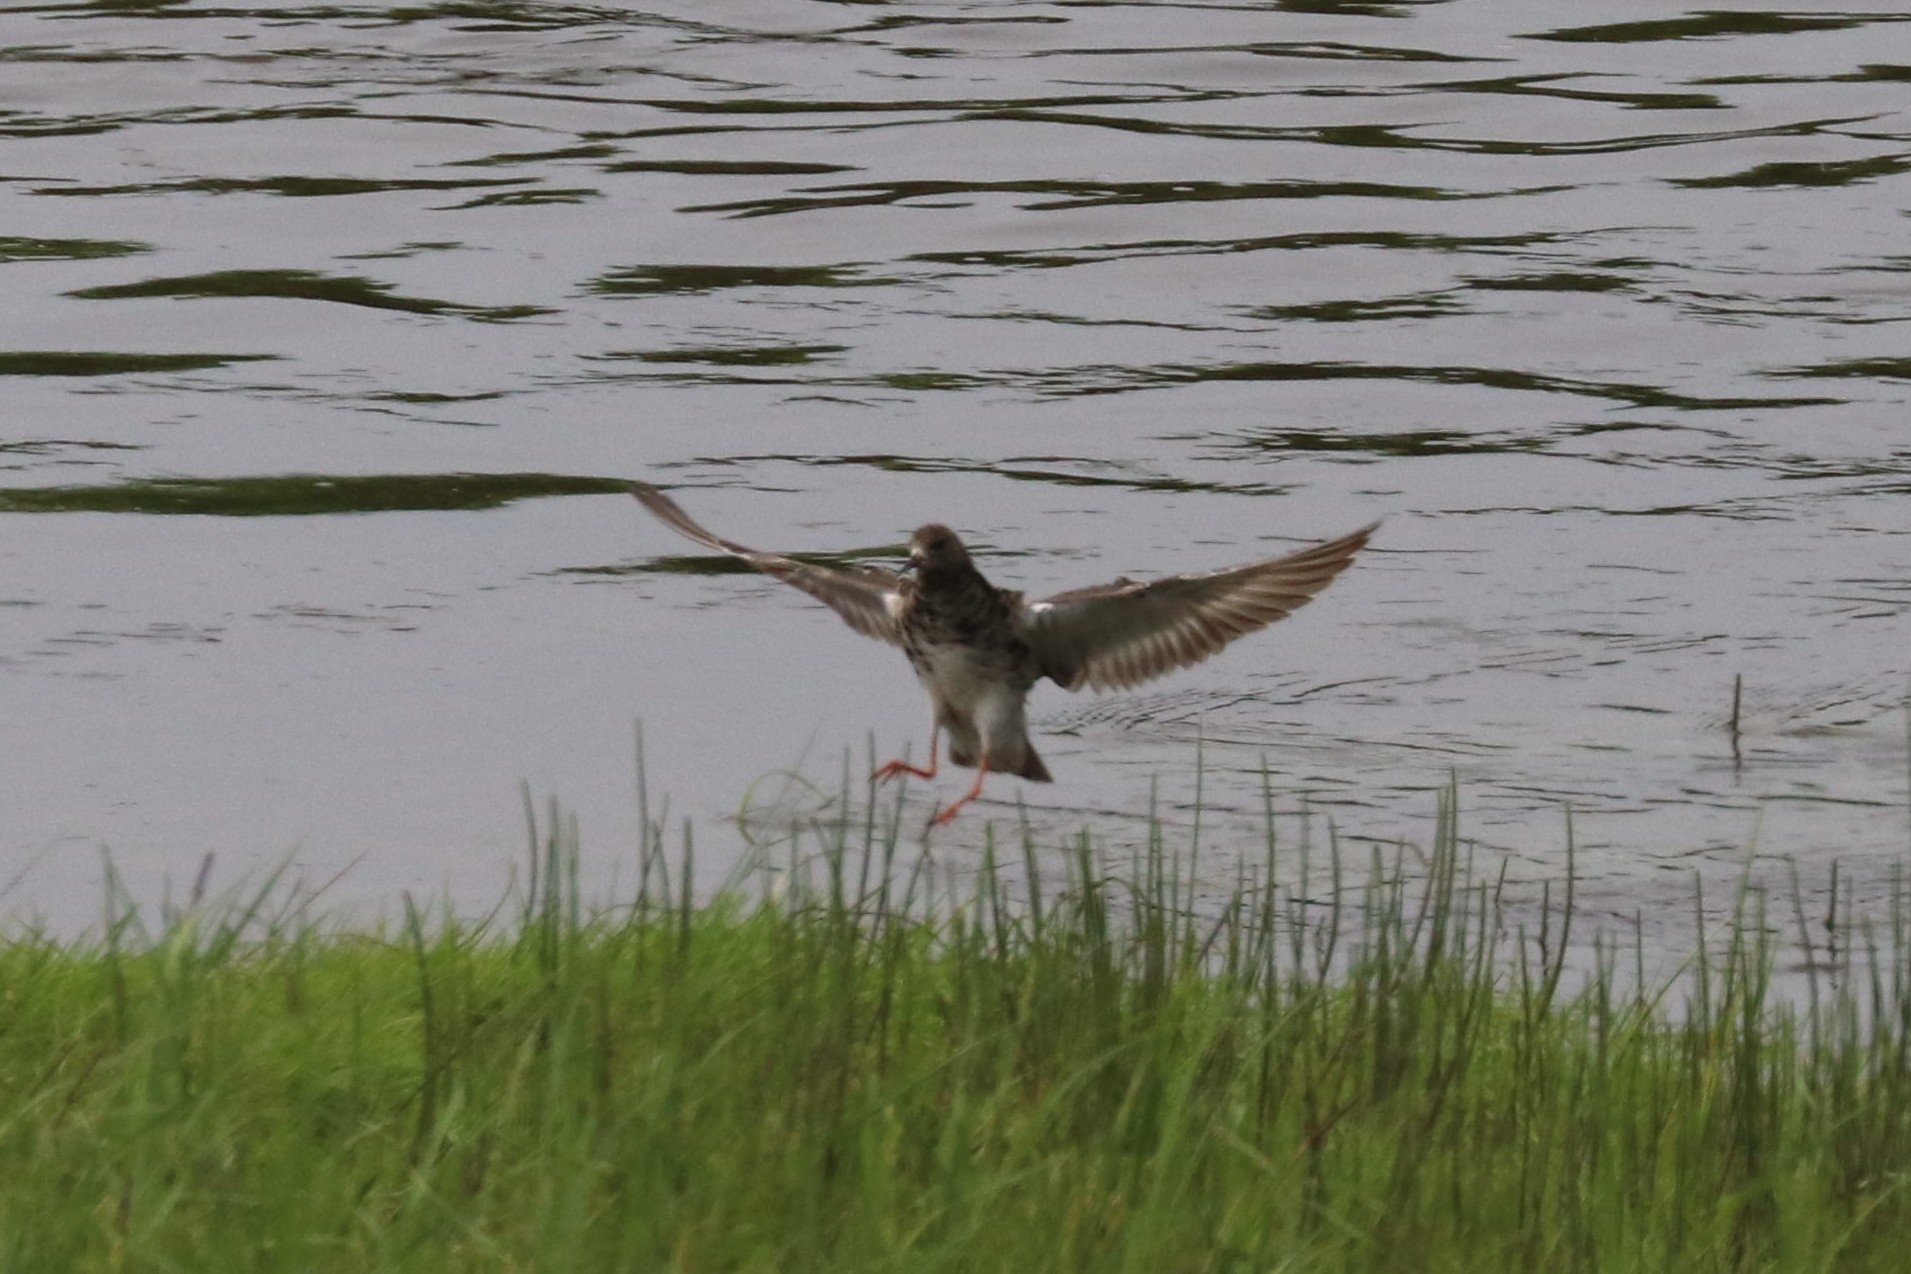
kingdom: Animalia
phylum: Chordata
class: Aves
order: Charadriiformes
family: Scolopacidae
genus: Calidris
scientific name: Calidris pugnax
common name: Ruff
